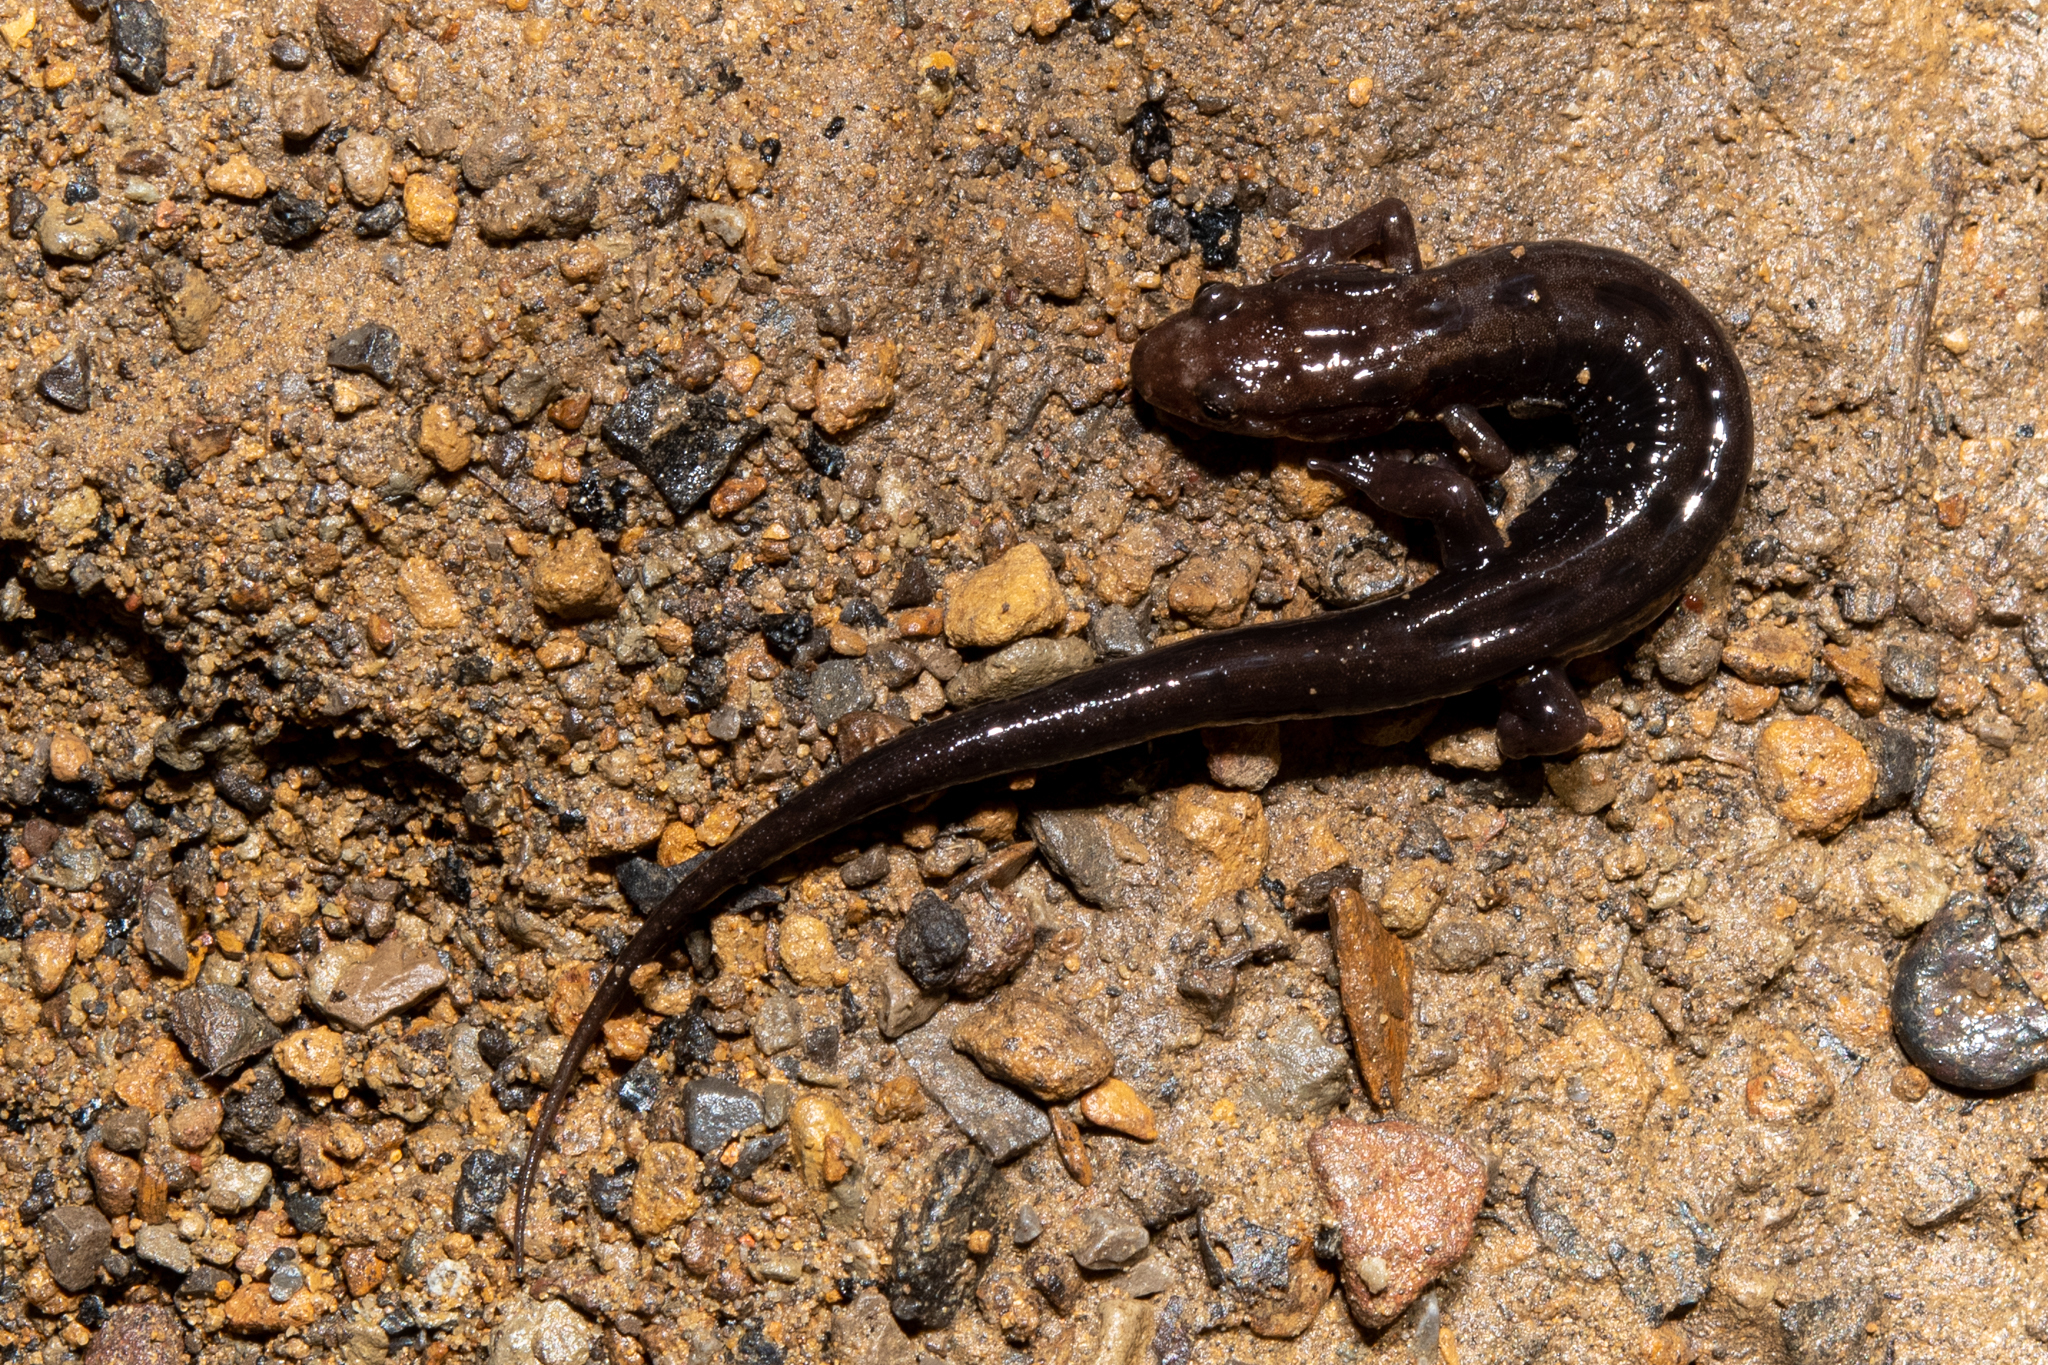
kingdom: Animalia
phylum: Chordata
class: Amphibia
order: Caudata
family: Plethodontidae
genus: Desmognathus
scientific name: Desmognathus ochrophaeus
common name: Allegheny mountain dusky salamander
